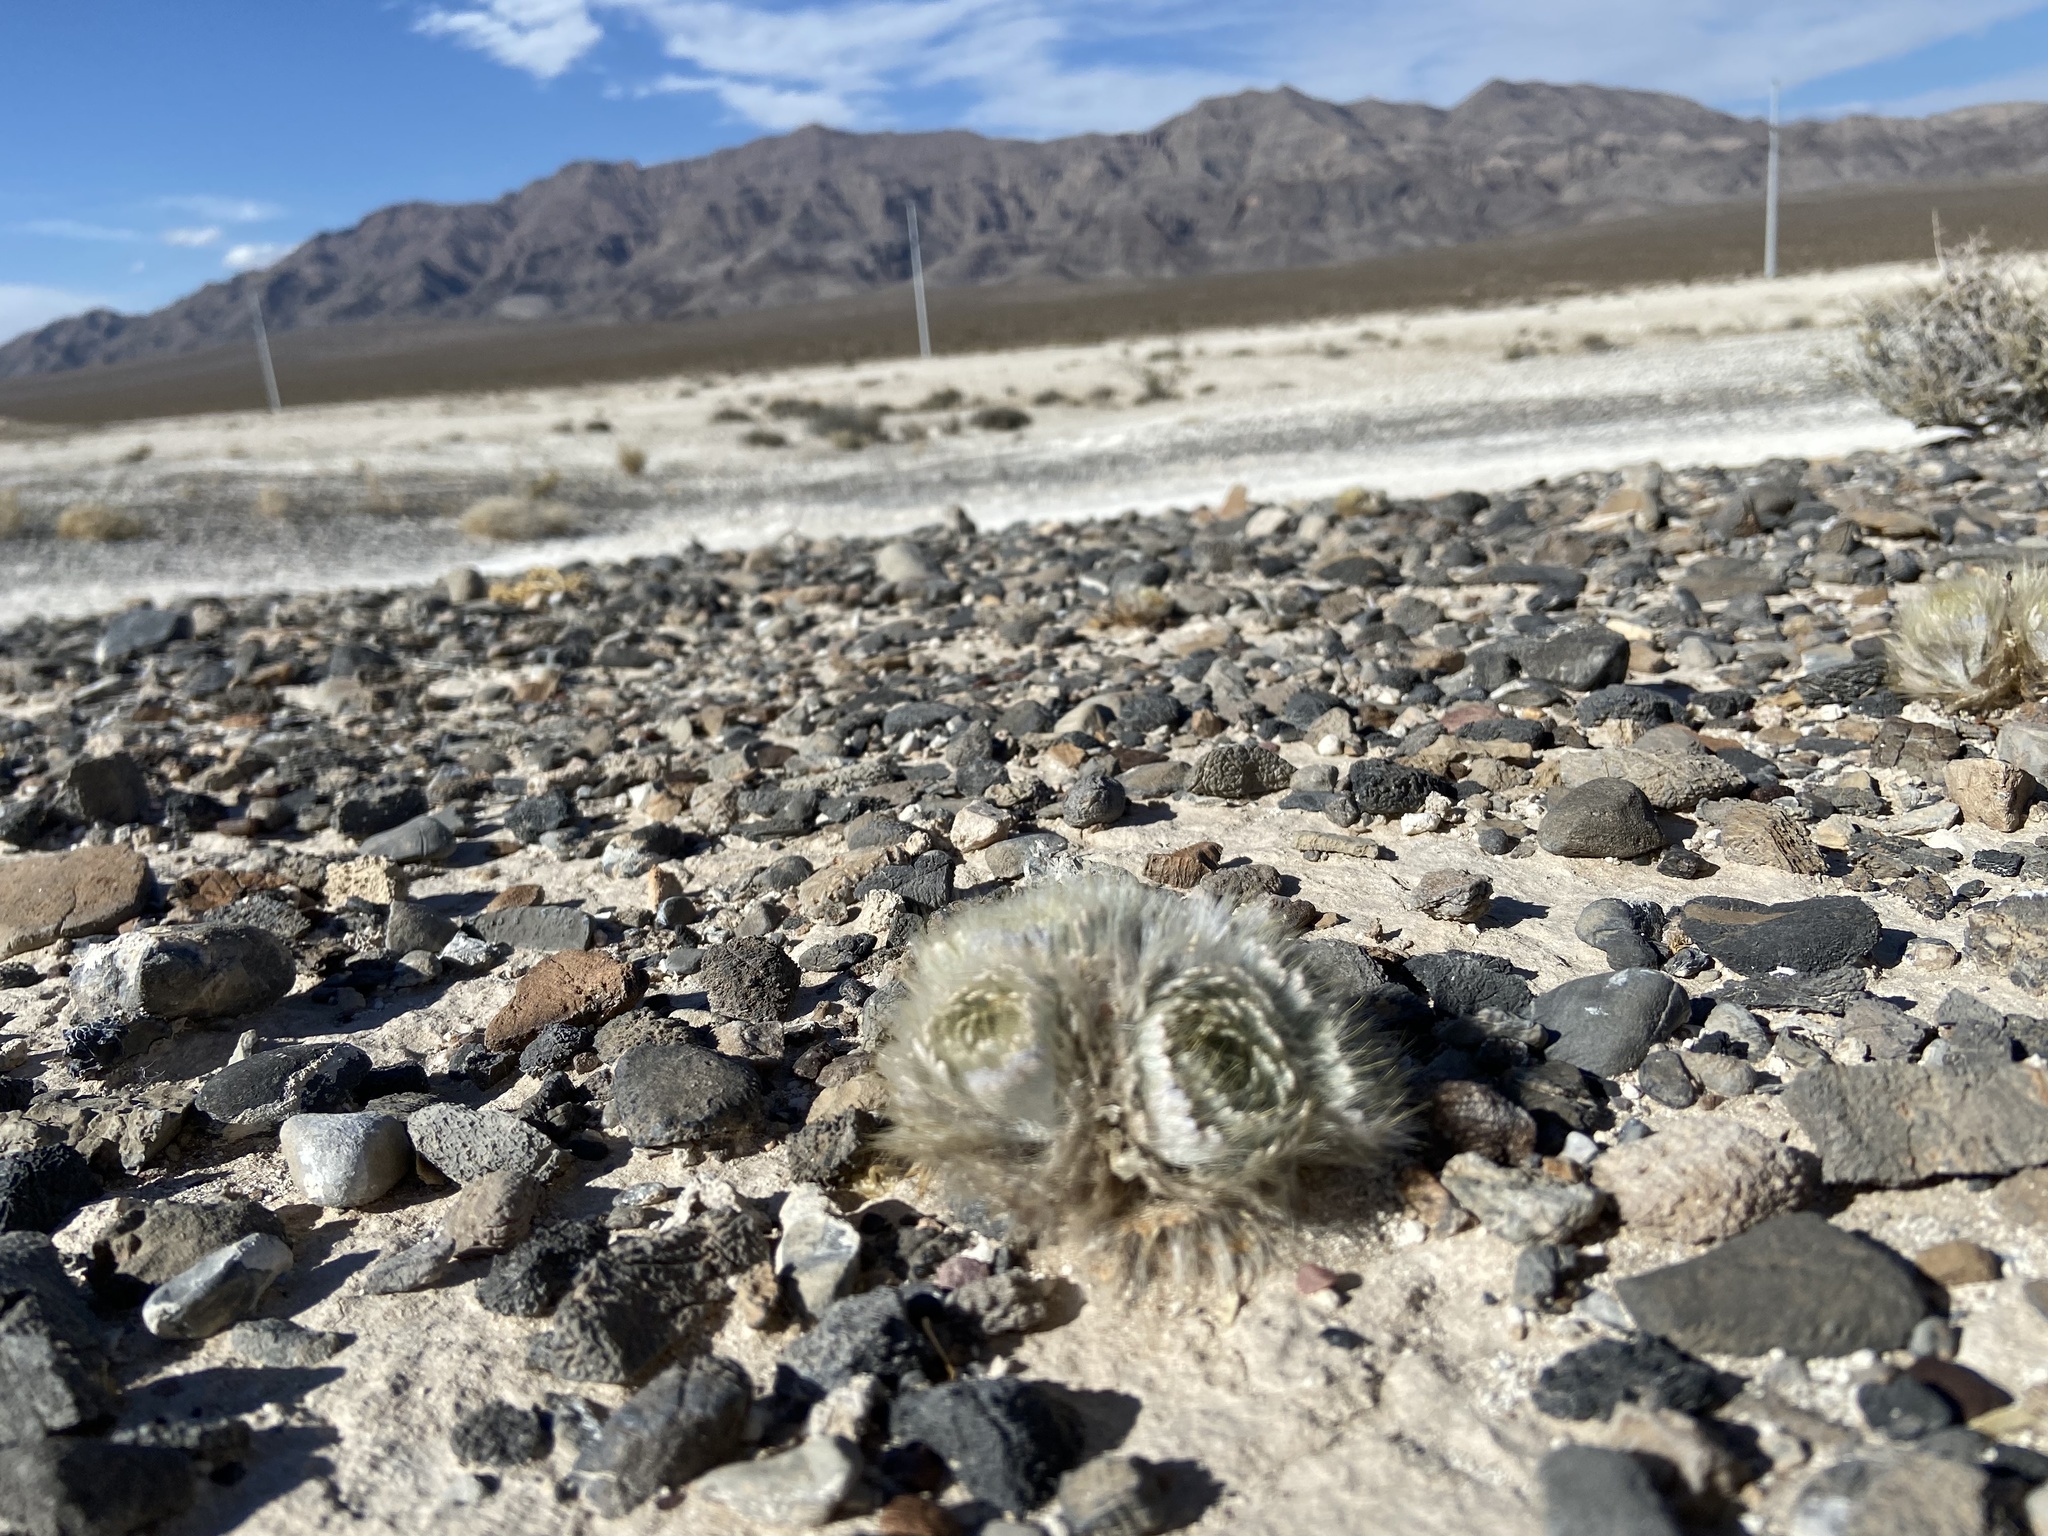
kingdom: Plantae
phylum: Tracheophyta
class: Magnoliopsida
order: Ranunculales
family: Papaveraceae
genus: Arctomecon
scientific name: Arctomecon californicum
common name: Golden bearclaw-poppy
